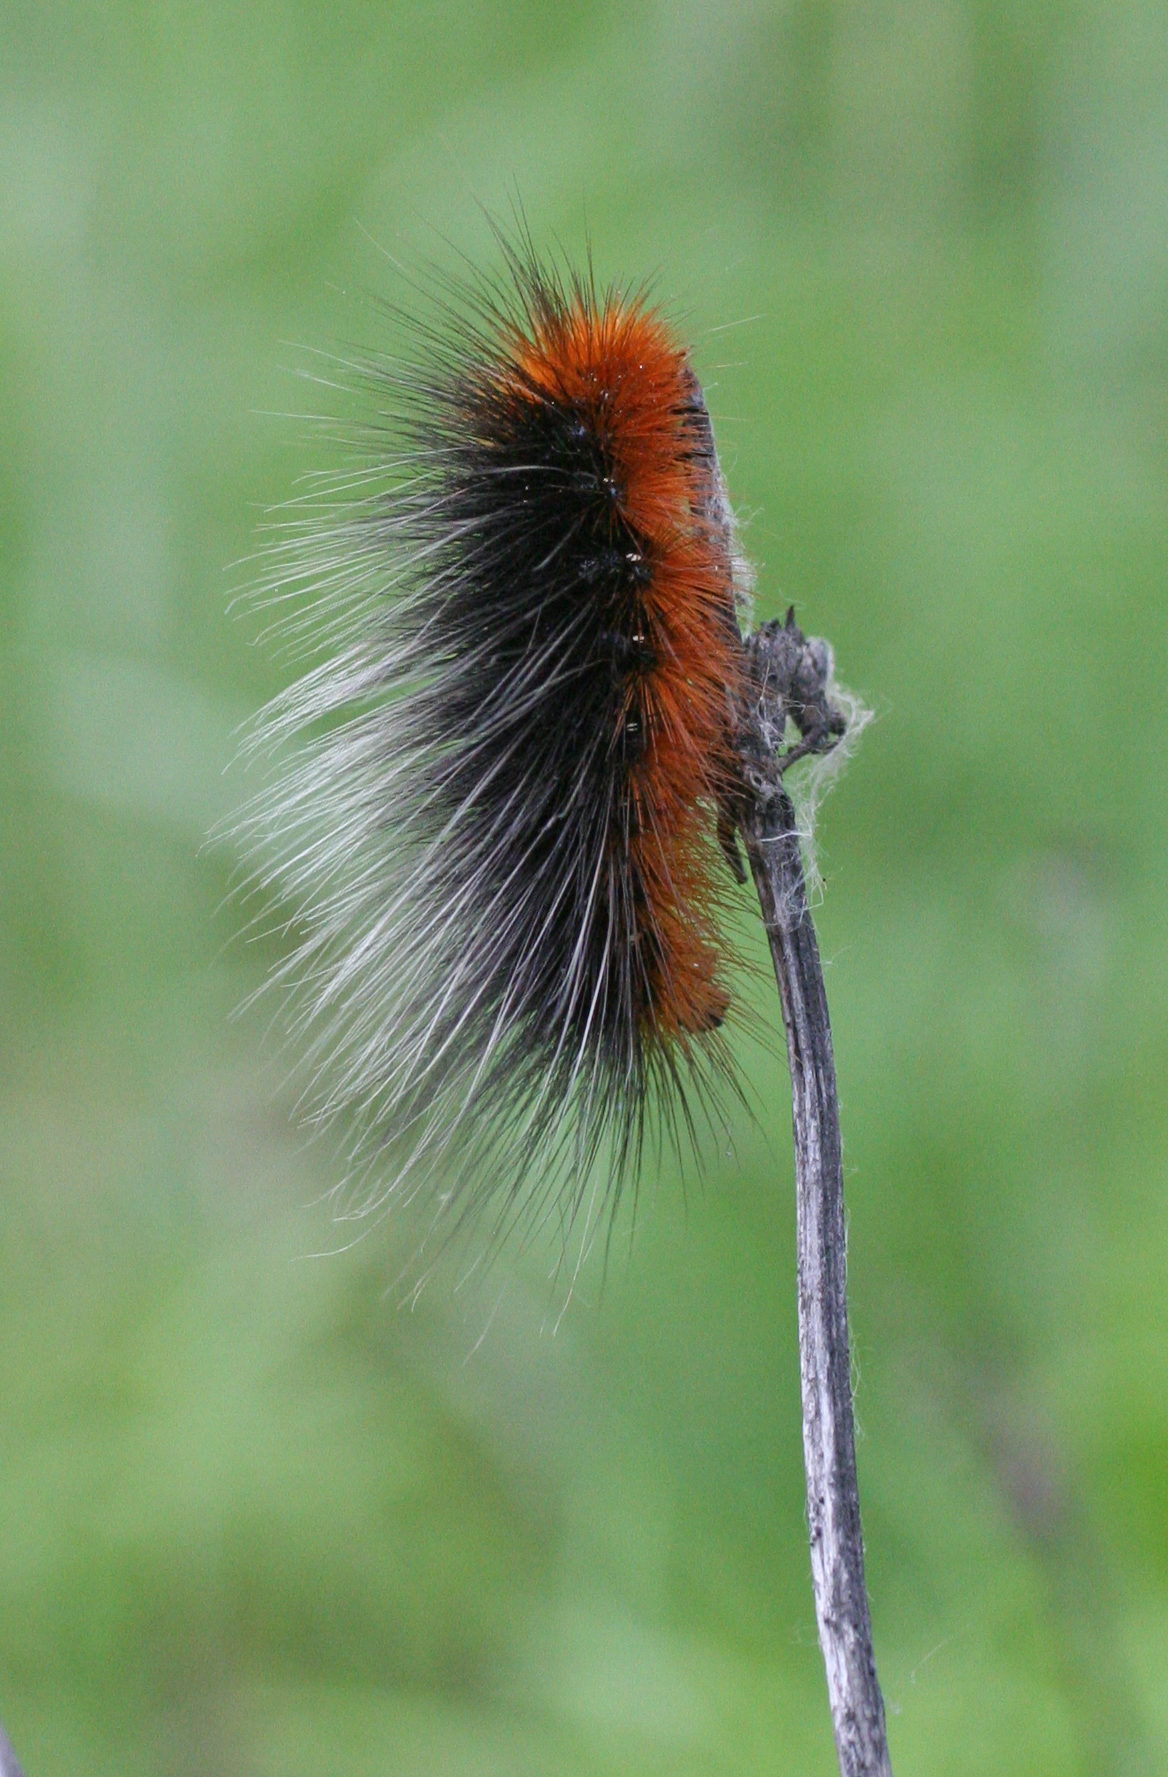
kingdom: Animalia
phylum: Arthropoda
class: Insecta
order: Lepidoptera
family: Erebidae
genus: Arctia
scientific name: Arctia caja
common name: Garden tiger
